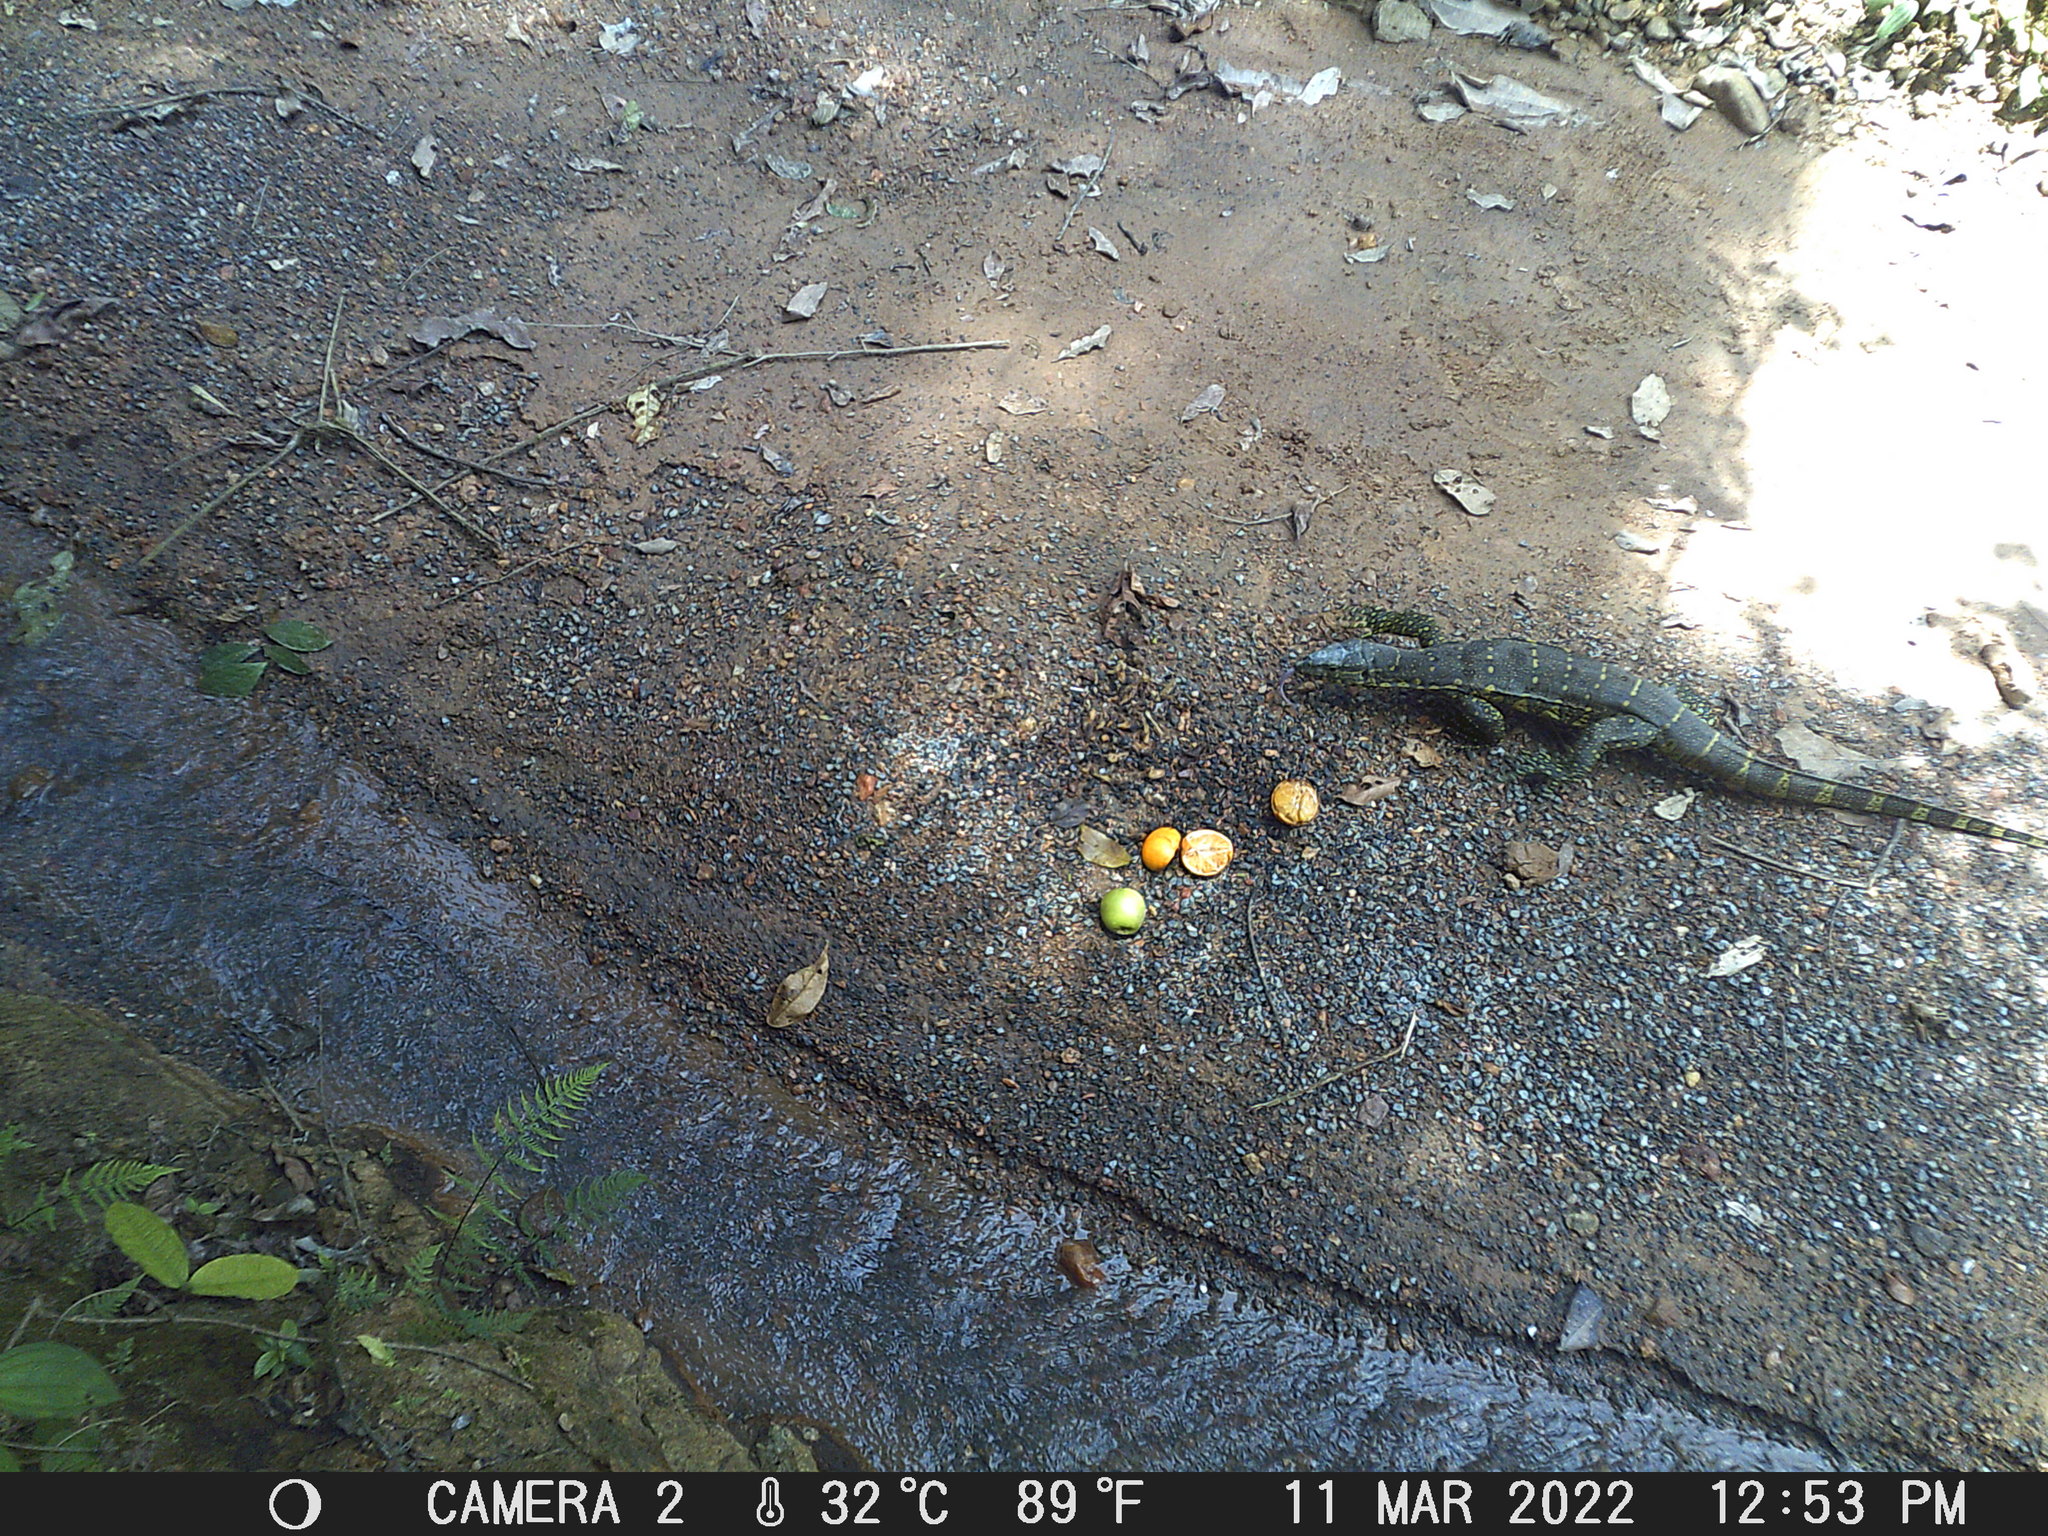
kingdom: Animalia
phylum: Chordata
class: Squamata
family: Varanidae
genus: Varanus
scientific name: Varanus niloticus
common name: Nile monitor
